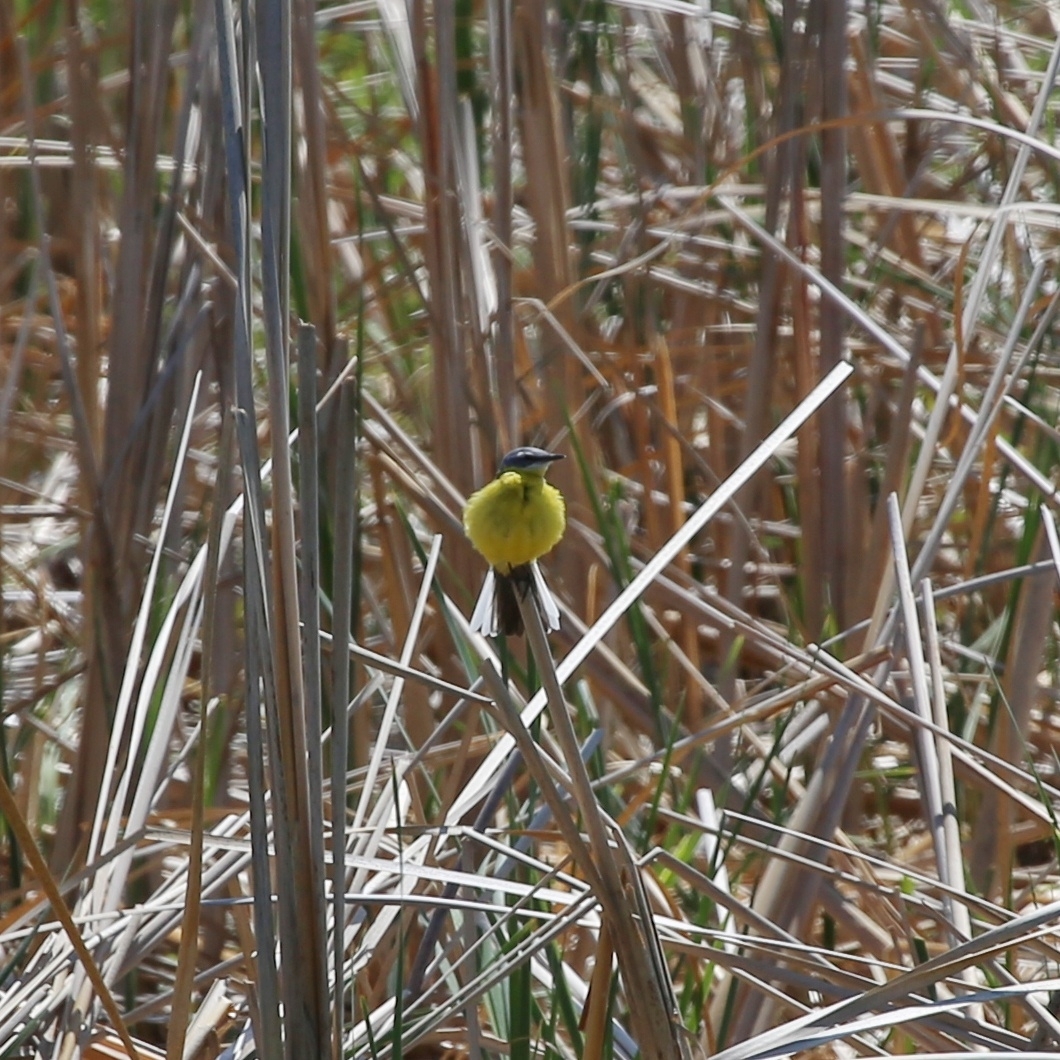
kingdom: Animalia
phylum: Chordata
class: Aves
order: Passeriformes
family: Motacillidae
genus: Motacilla
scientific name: Motacilla flava
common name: Western yellow wagtail
